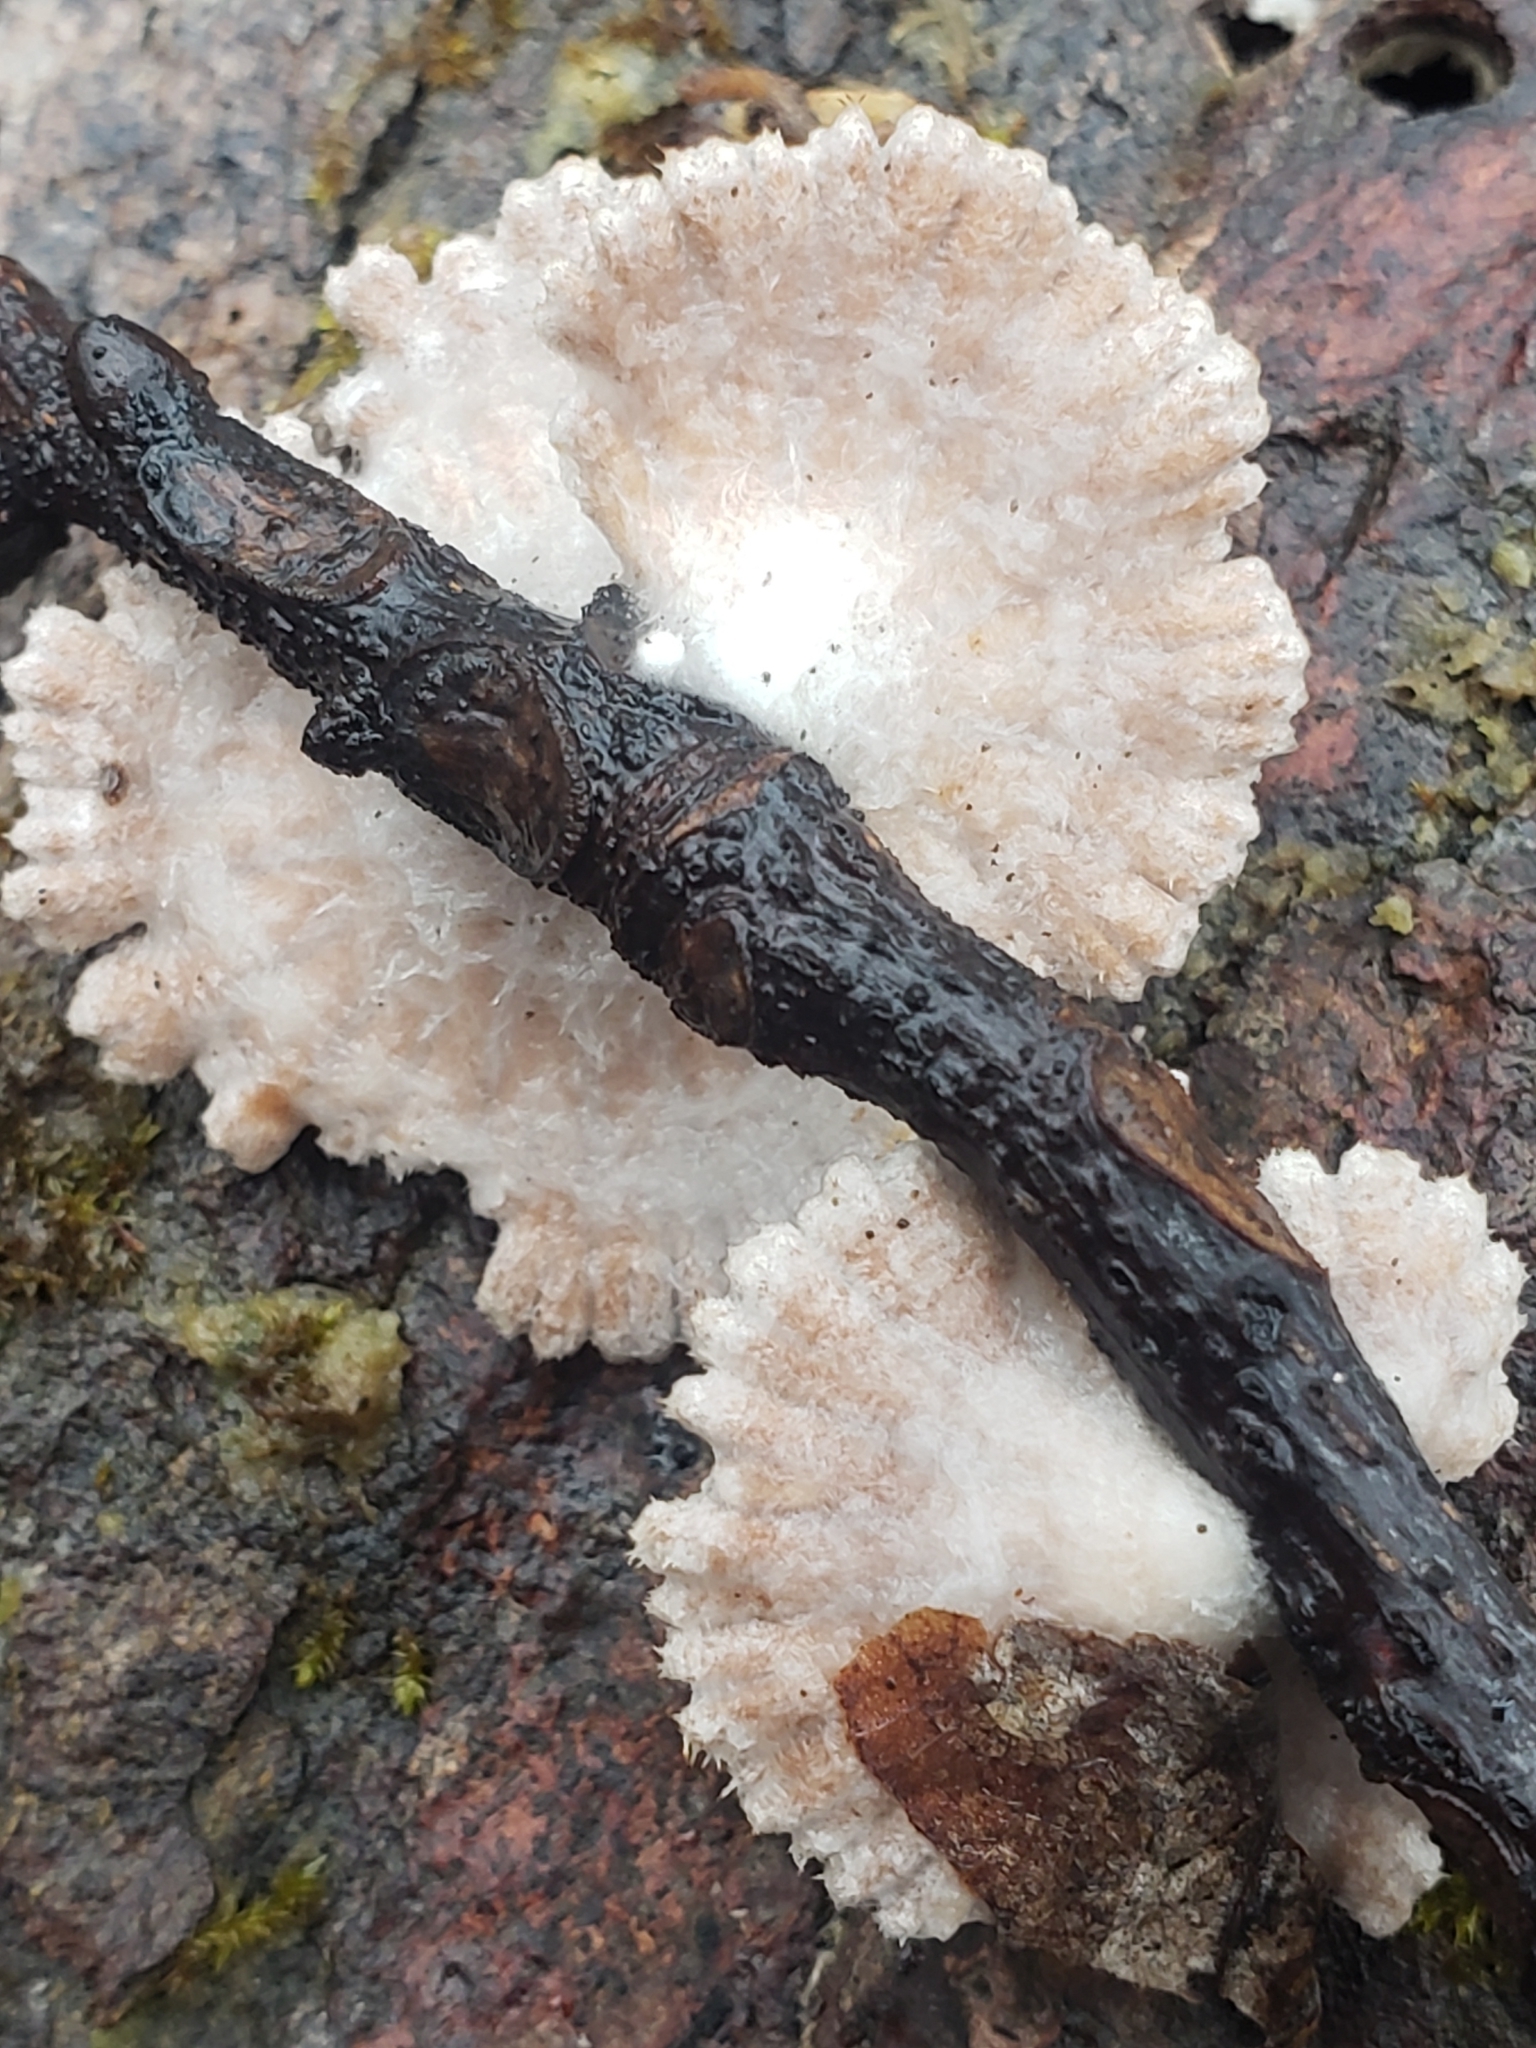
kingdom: Fungi
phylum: Basidiomycota
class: Agaricomycetes
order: Agaricales
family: Schizophyllaceae
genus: Schizophyllum
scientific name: Schizophyllum commune
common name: Common porecrust
